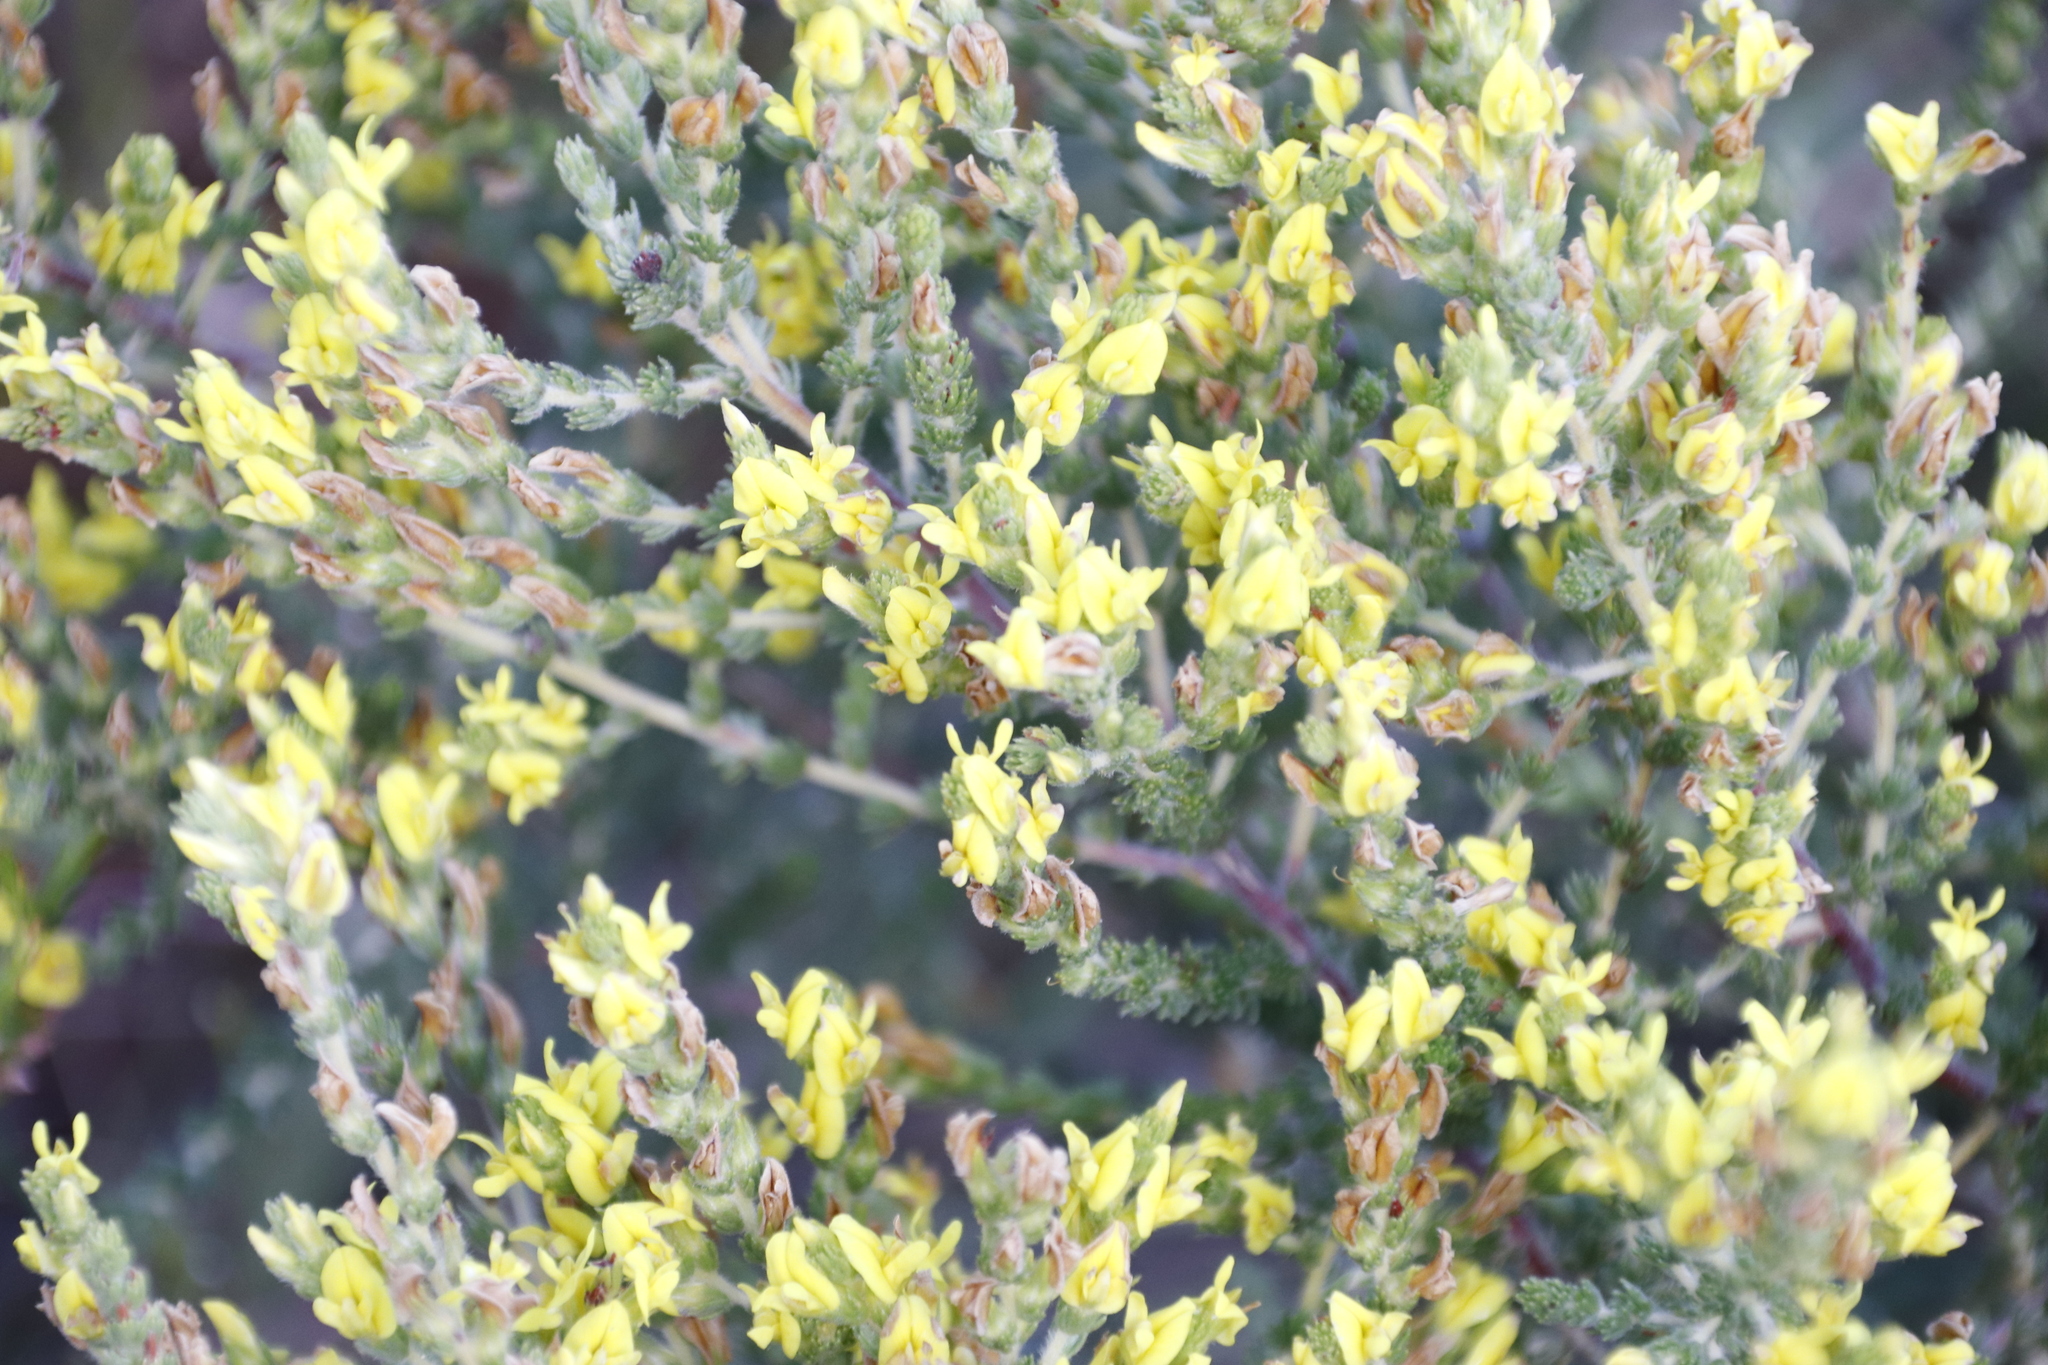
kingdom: Plantae
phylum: Tracheophyta
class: Magnoliopsida
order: Fabales
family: Fabaceae
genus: Aspalathus
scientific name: Aspalathus ericifolia
